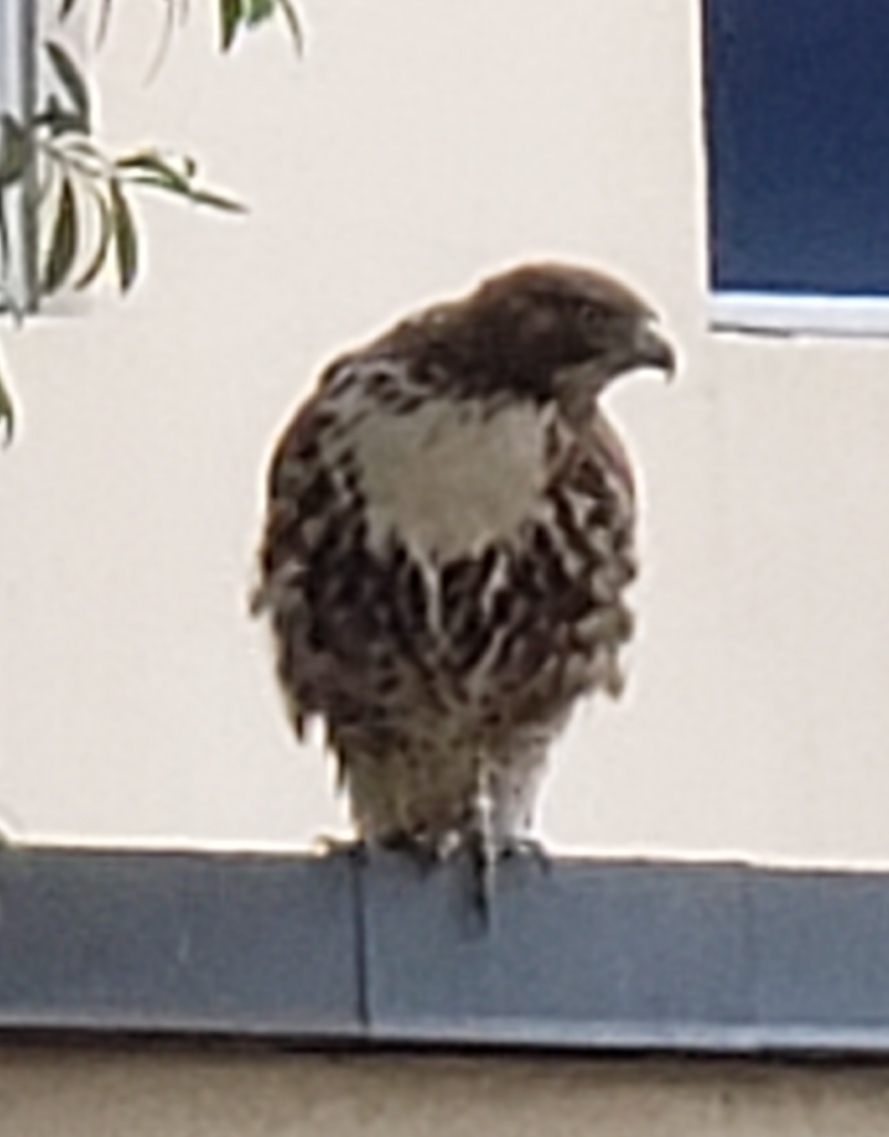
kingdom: Animalia
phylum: Chordata
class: Aves
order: Accipitriformes
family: Accipitridae
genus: Buteo
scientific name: Buteo jamaicensis
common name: Red-tailed hawk
